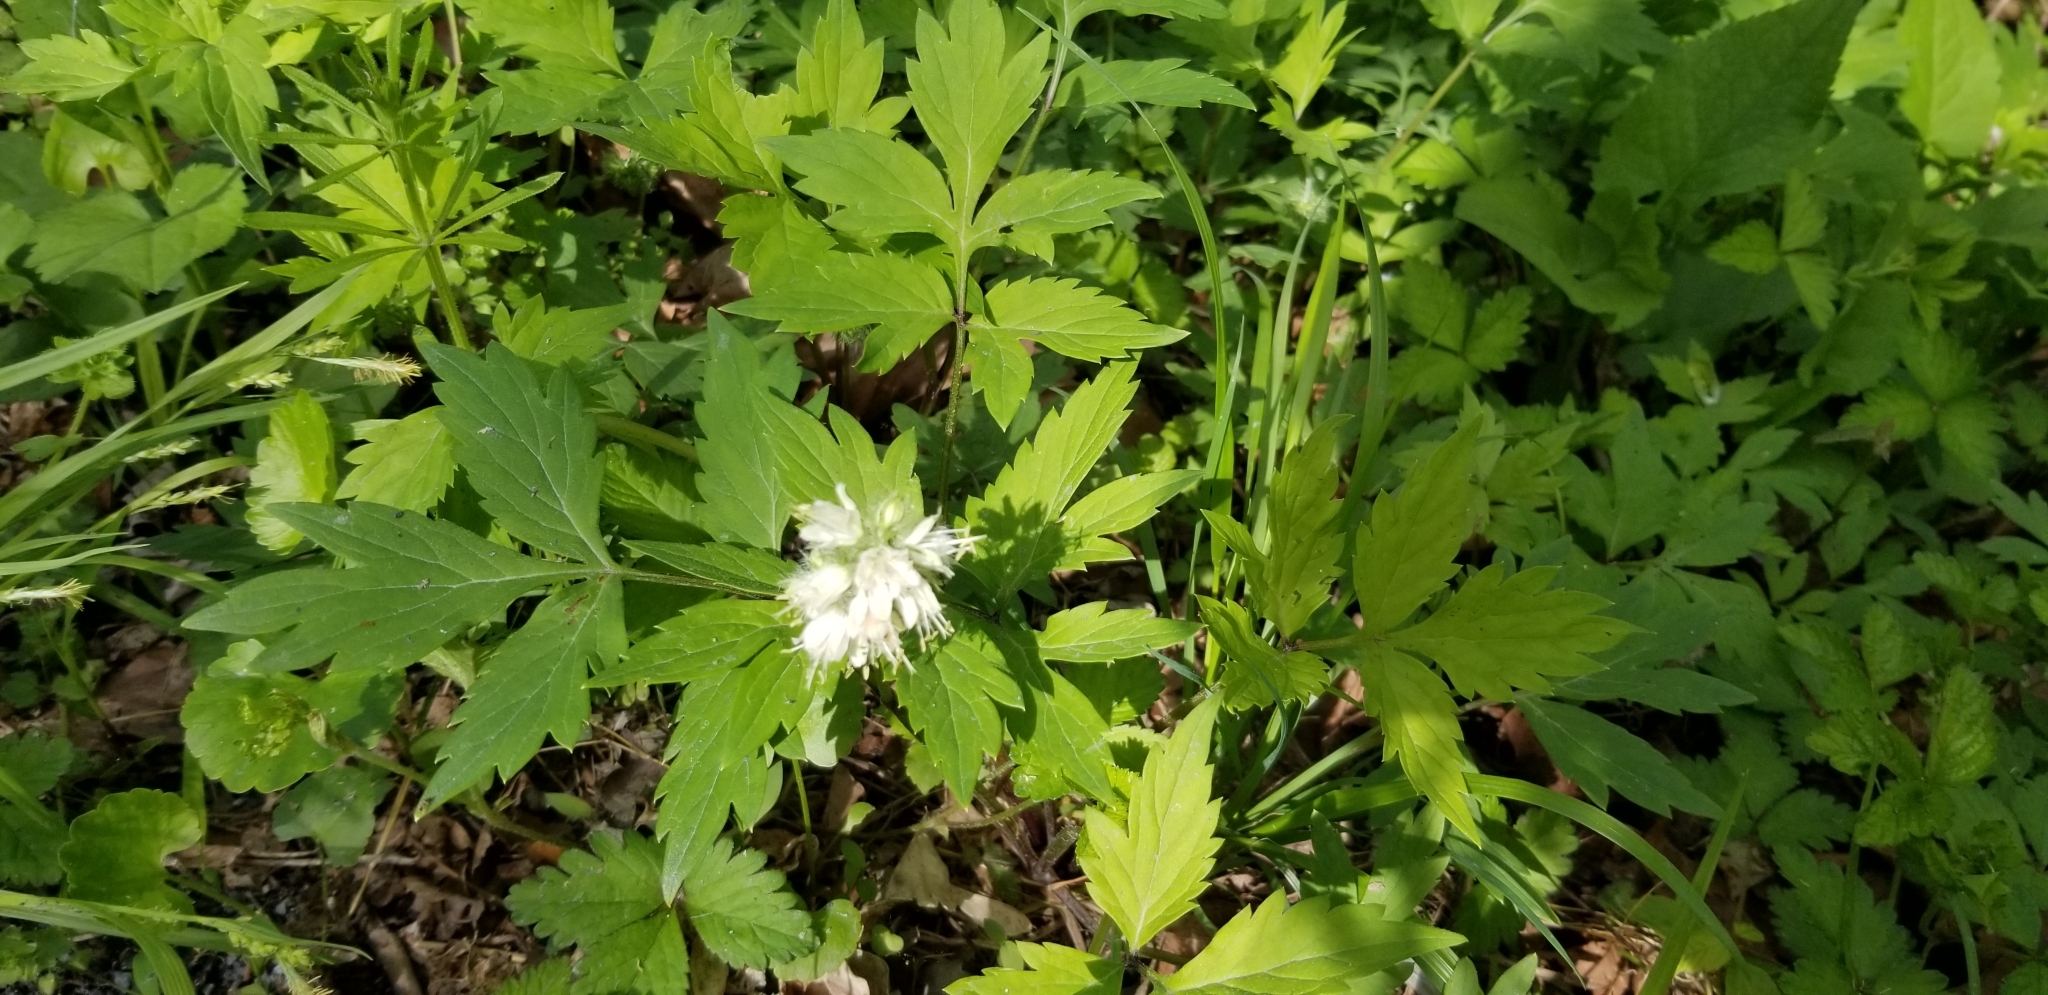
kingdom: Plantae
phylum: Tracheophyta
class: Magnoliopsida
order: Boraginales
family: Hydrophyllaceae
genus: Hydrophyllum
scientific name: Hydrophyllum virginianum
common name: Virginia waterleaf
